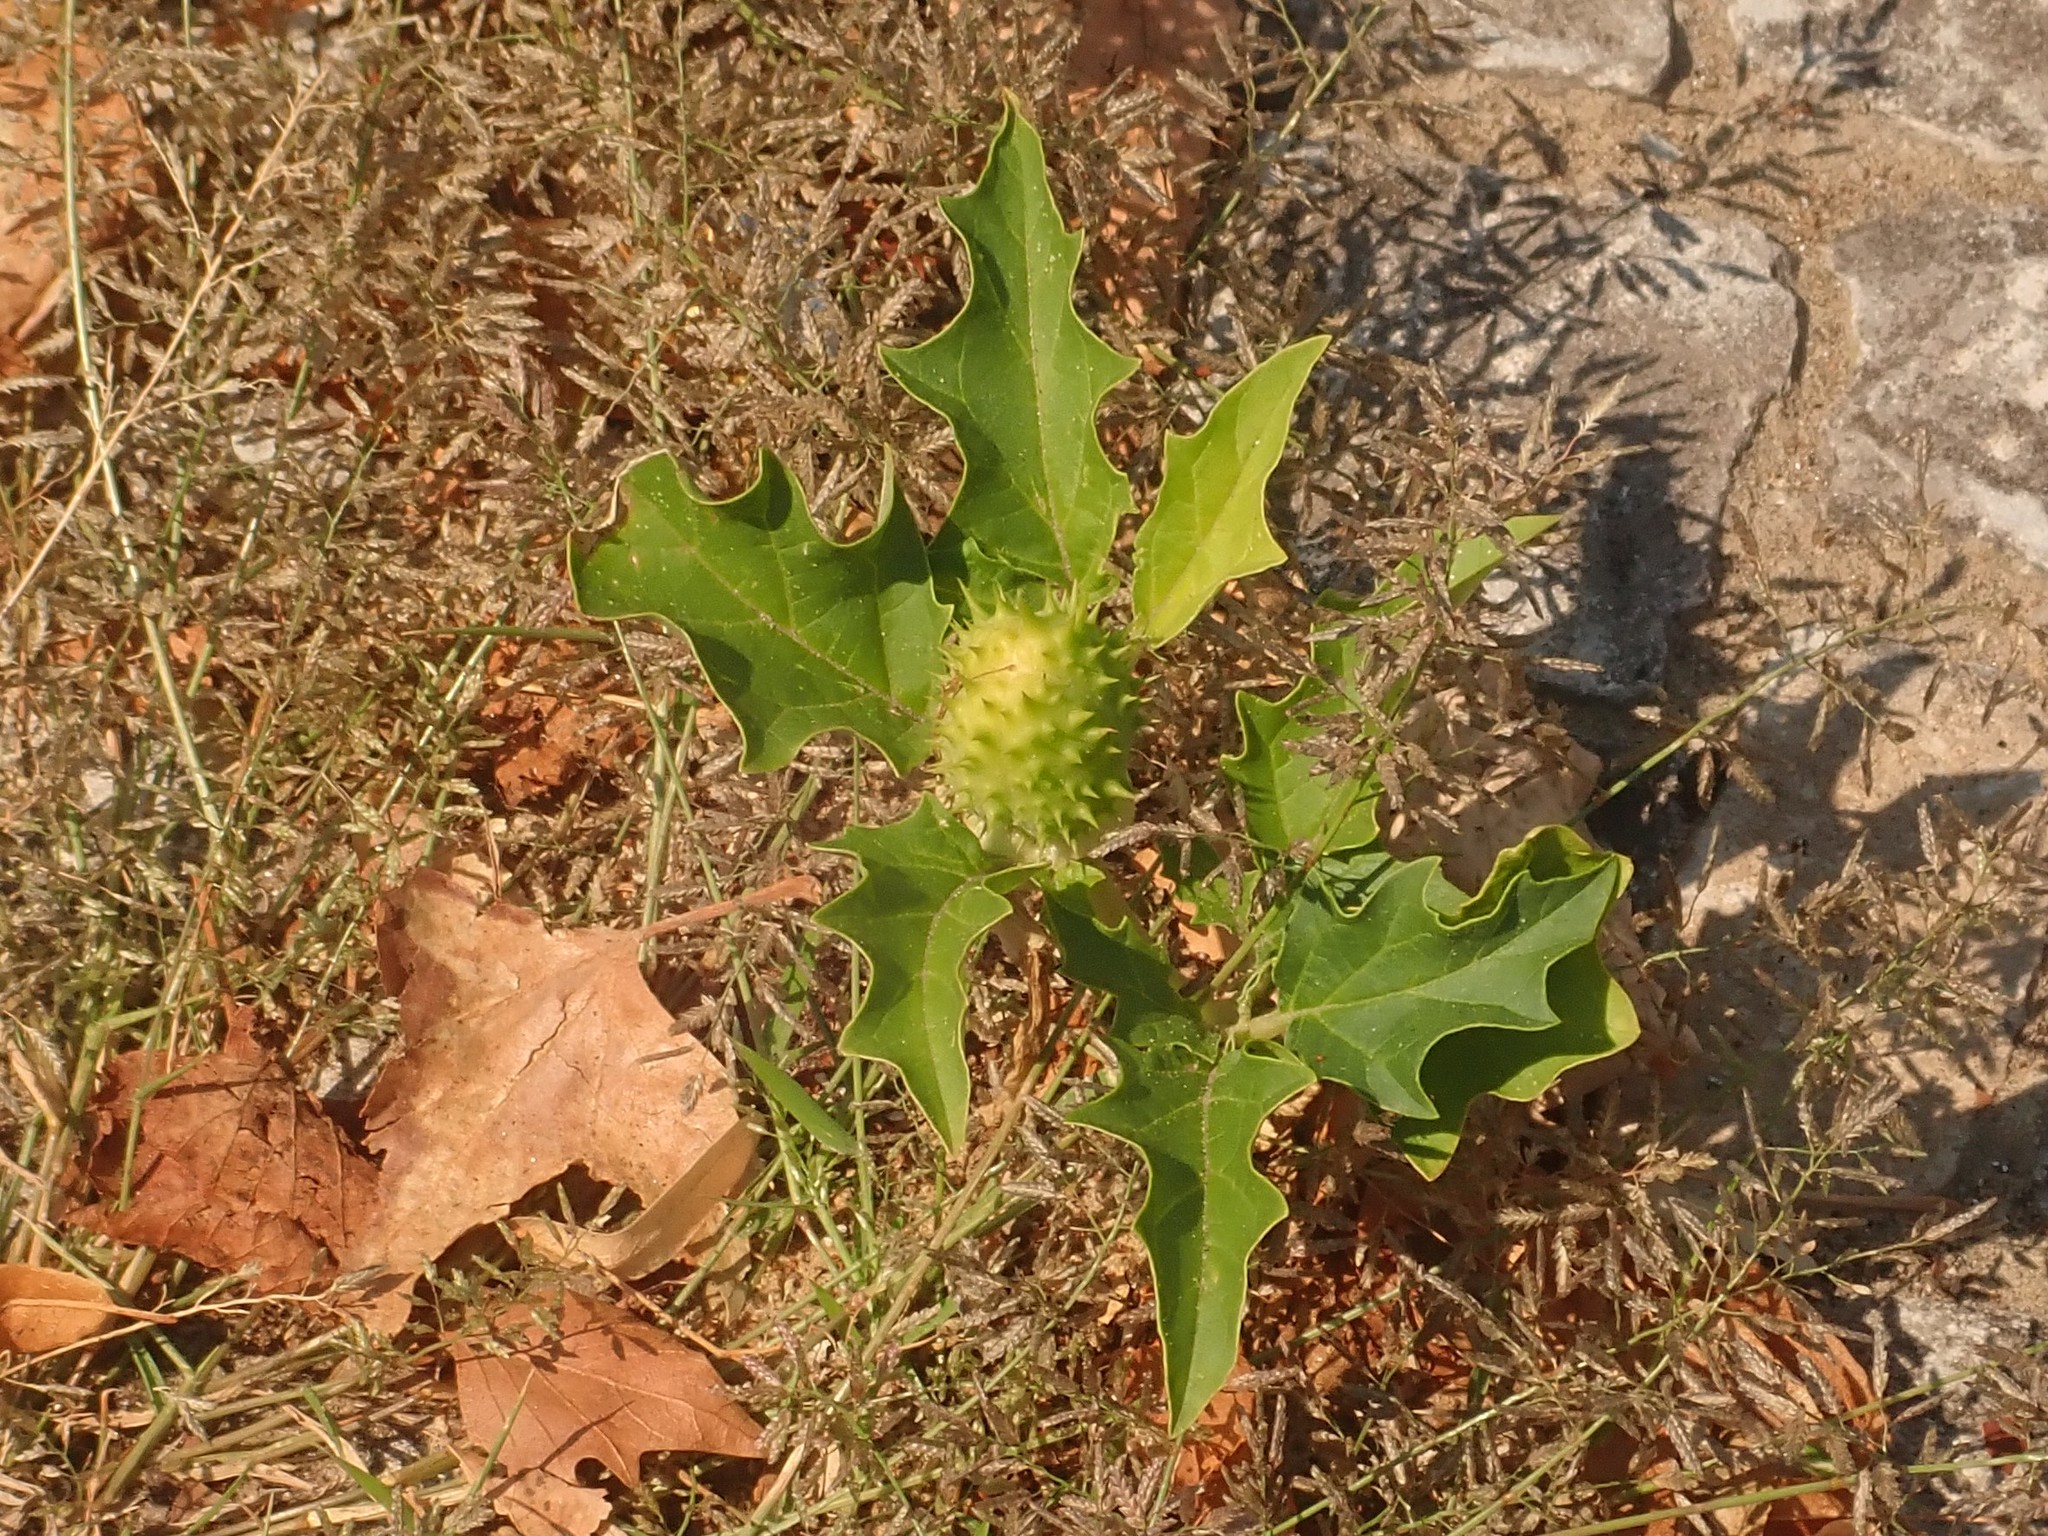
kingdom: Plantae
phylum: Tracheophyta
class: Magnoliopsida
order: Solanales
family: Solanaceae
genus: Datura
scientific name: Datura stramonium
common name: Thorn-apple
